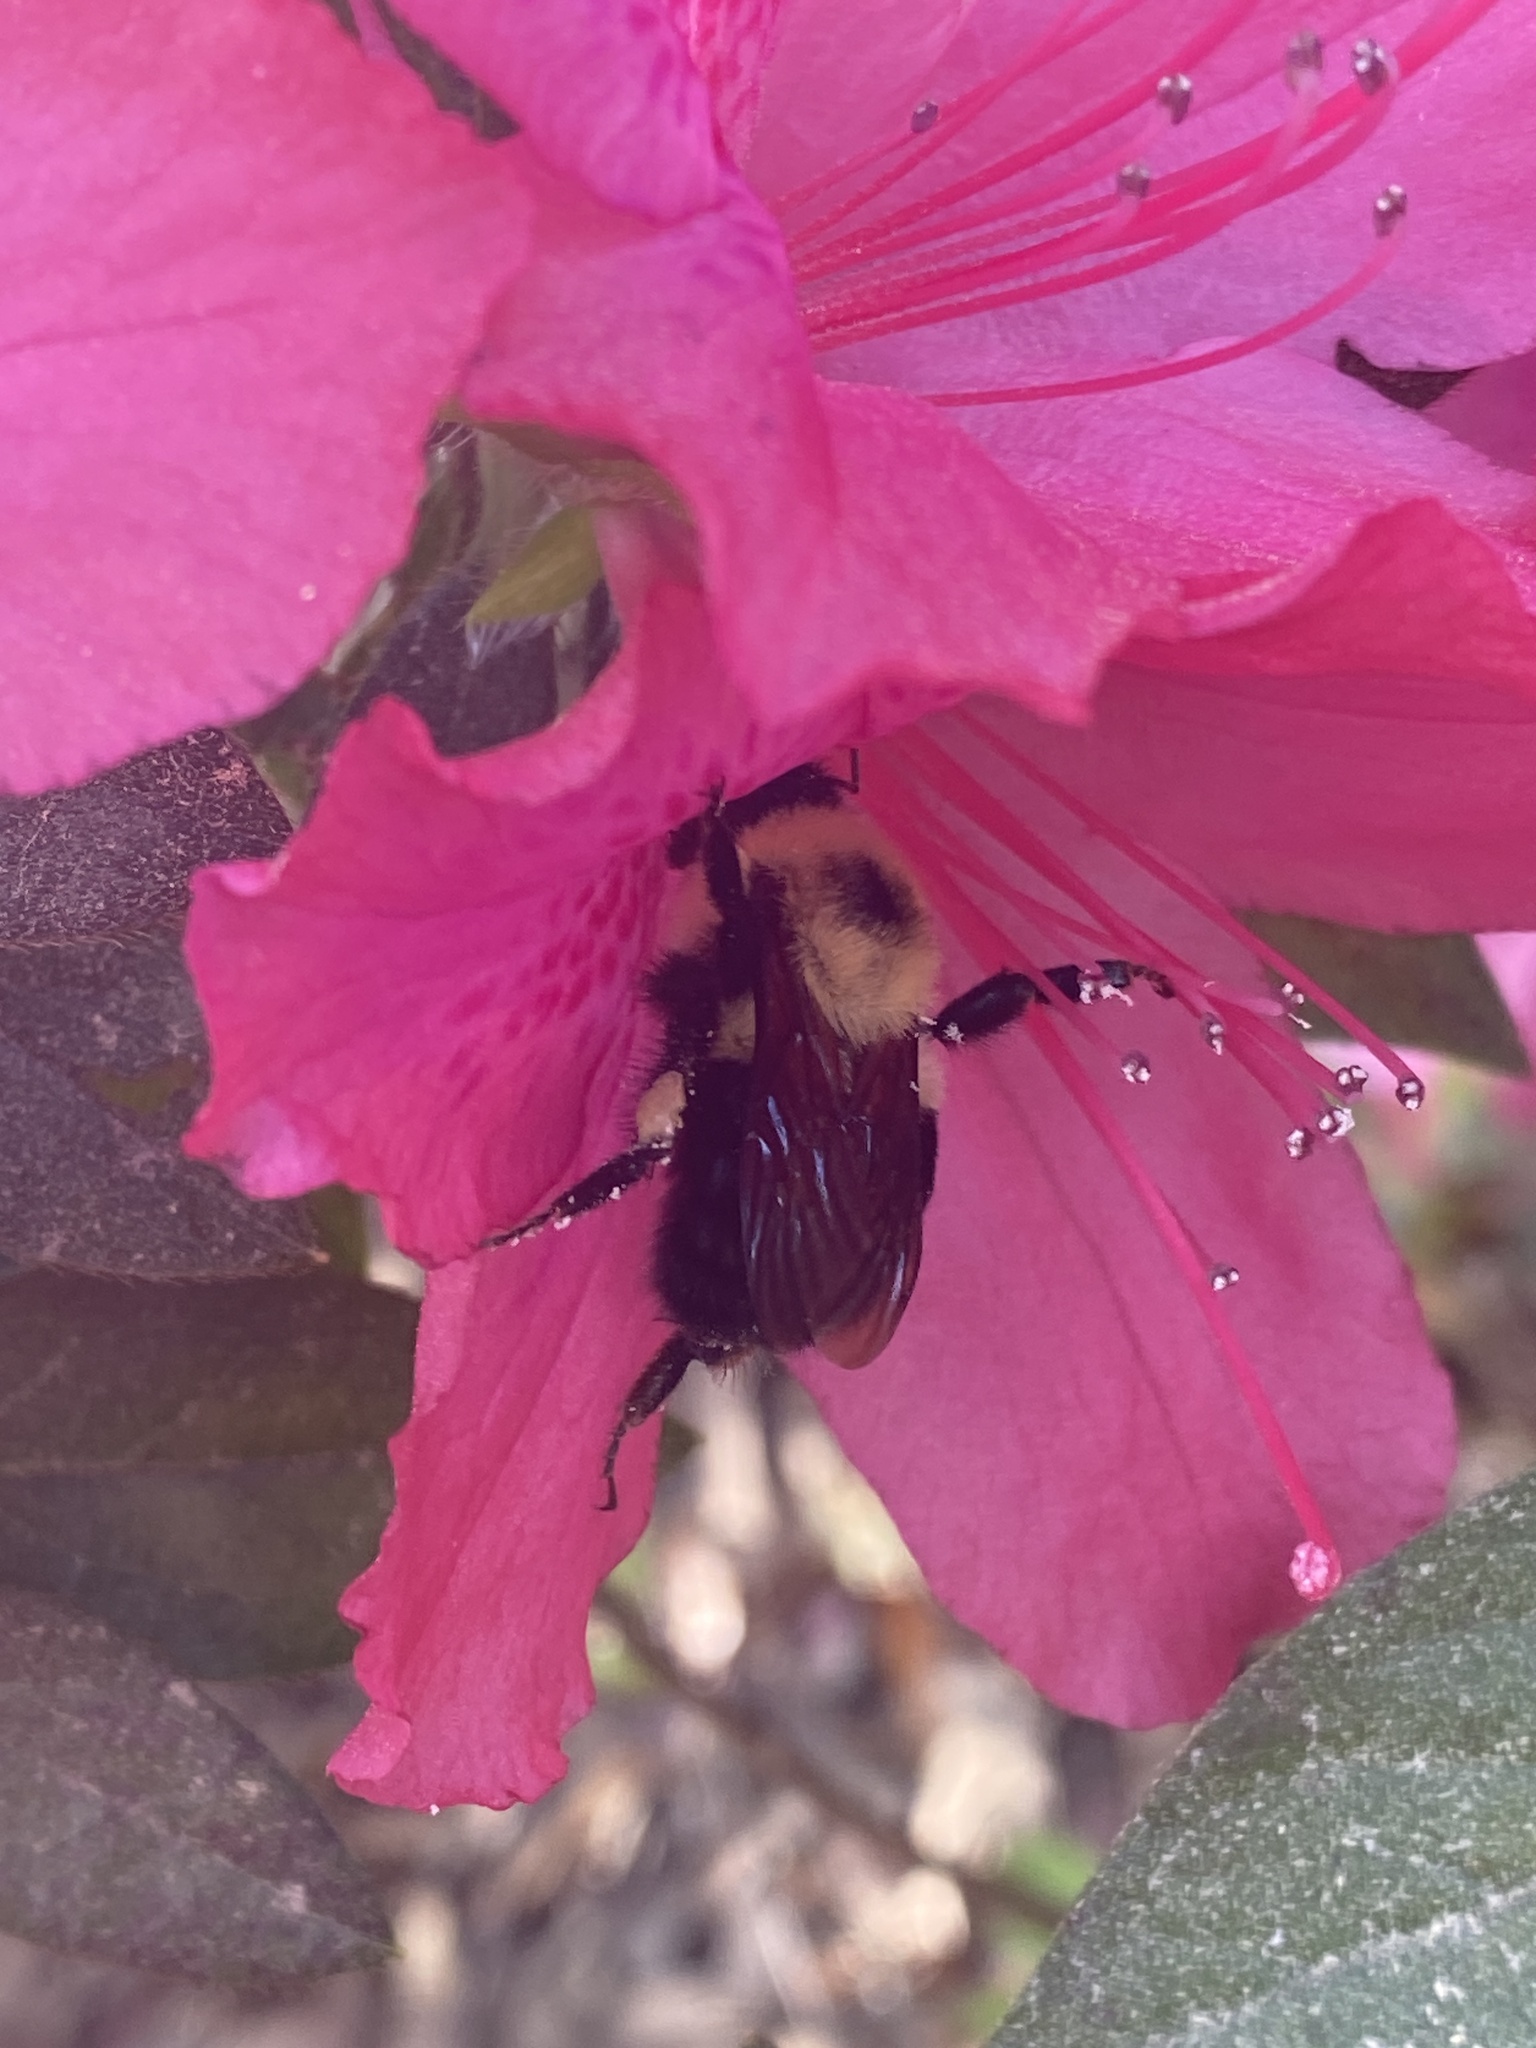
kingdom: Animalia
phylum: Arthropoda
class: Insecta
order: Hymenoptera
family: Apidae
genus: Bombus
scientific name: Bombus bimaculatus
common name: Two-spotted bumble bee
